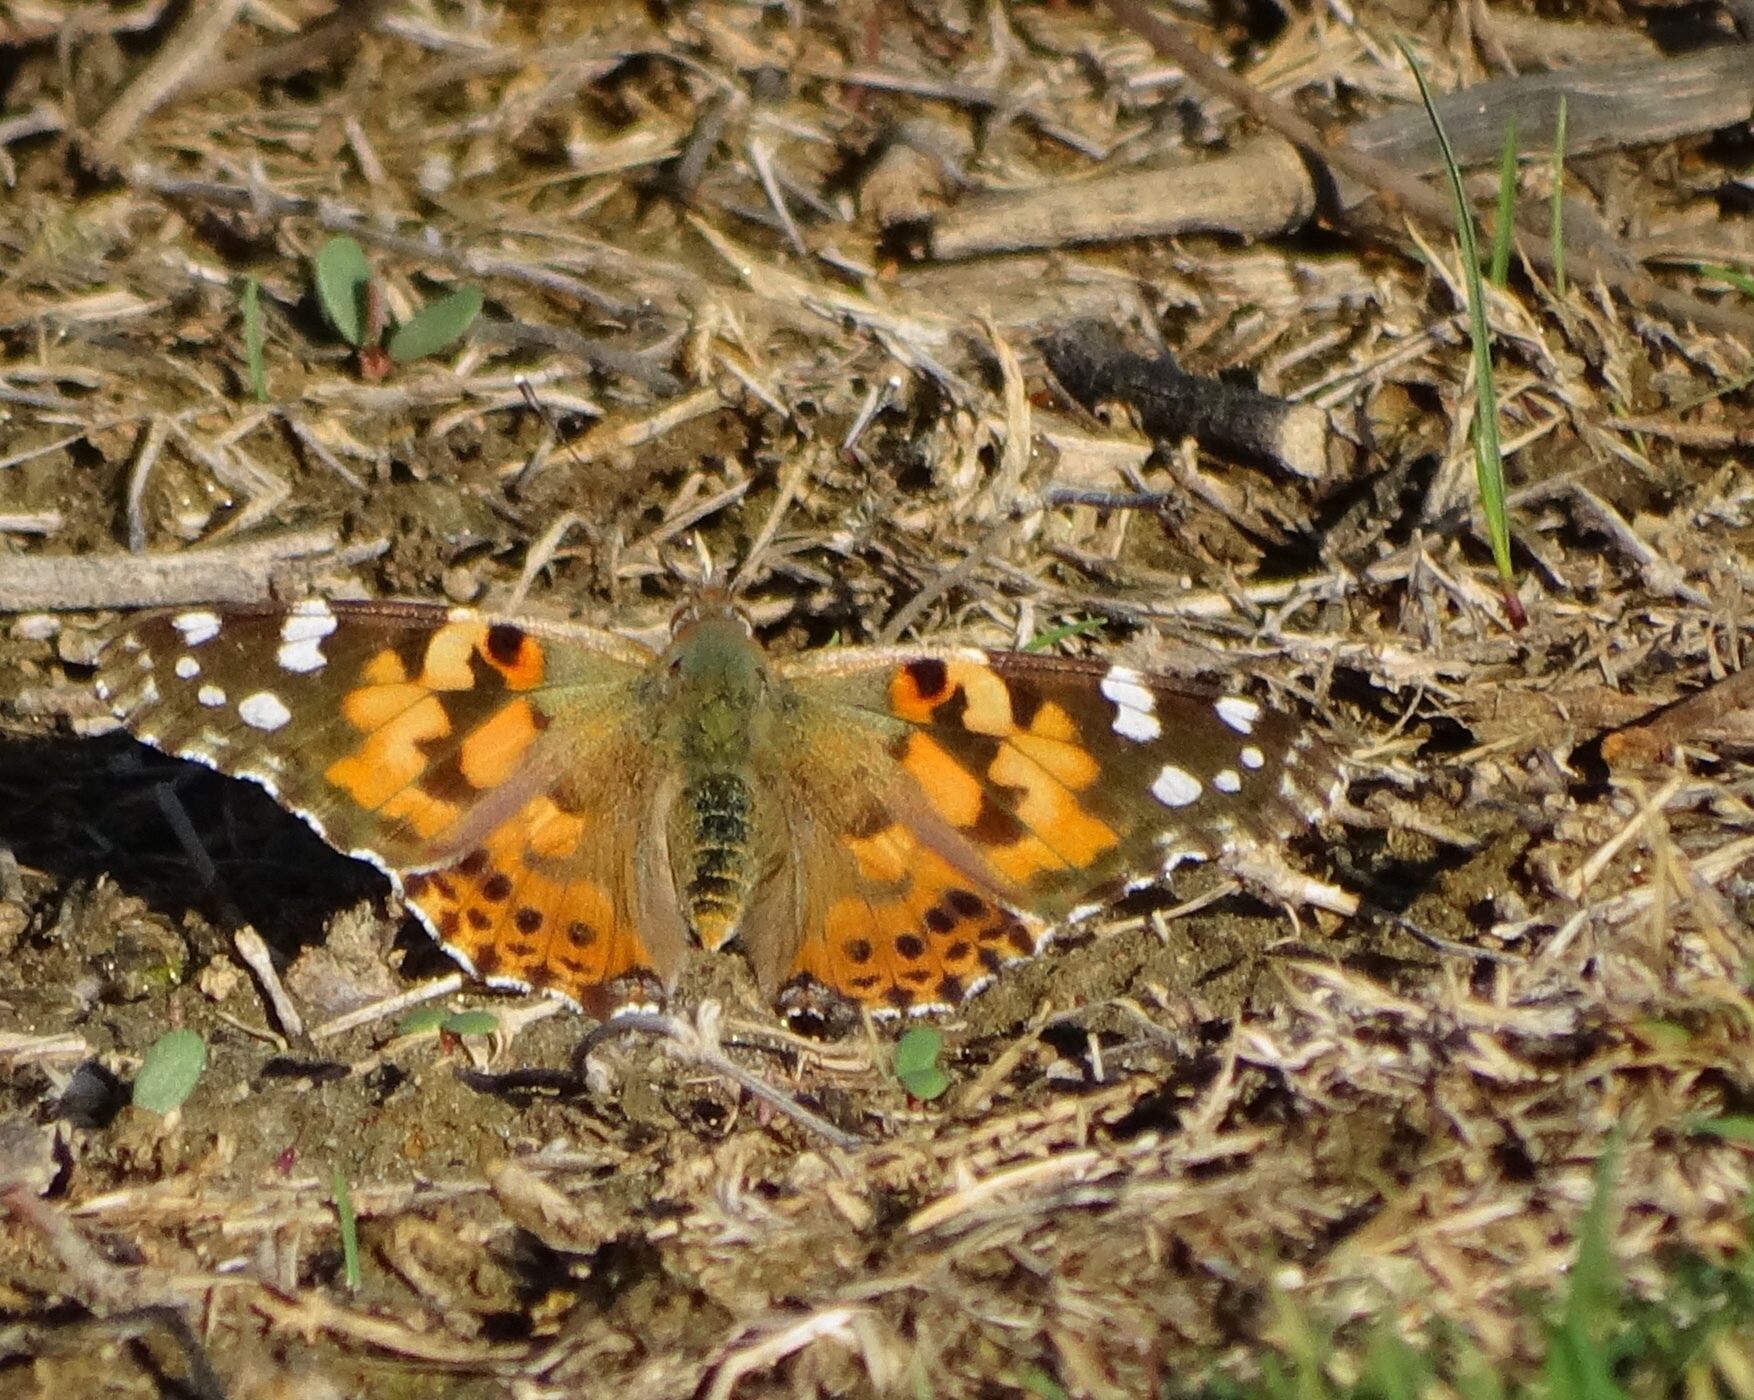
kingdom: Animalia
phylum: Arthropoda
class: Insecta
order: Lepidoptera
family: Nymphalidae
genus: Vanessa
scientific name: Vanessa cardui
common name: Painted lady
